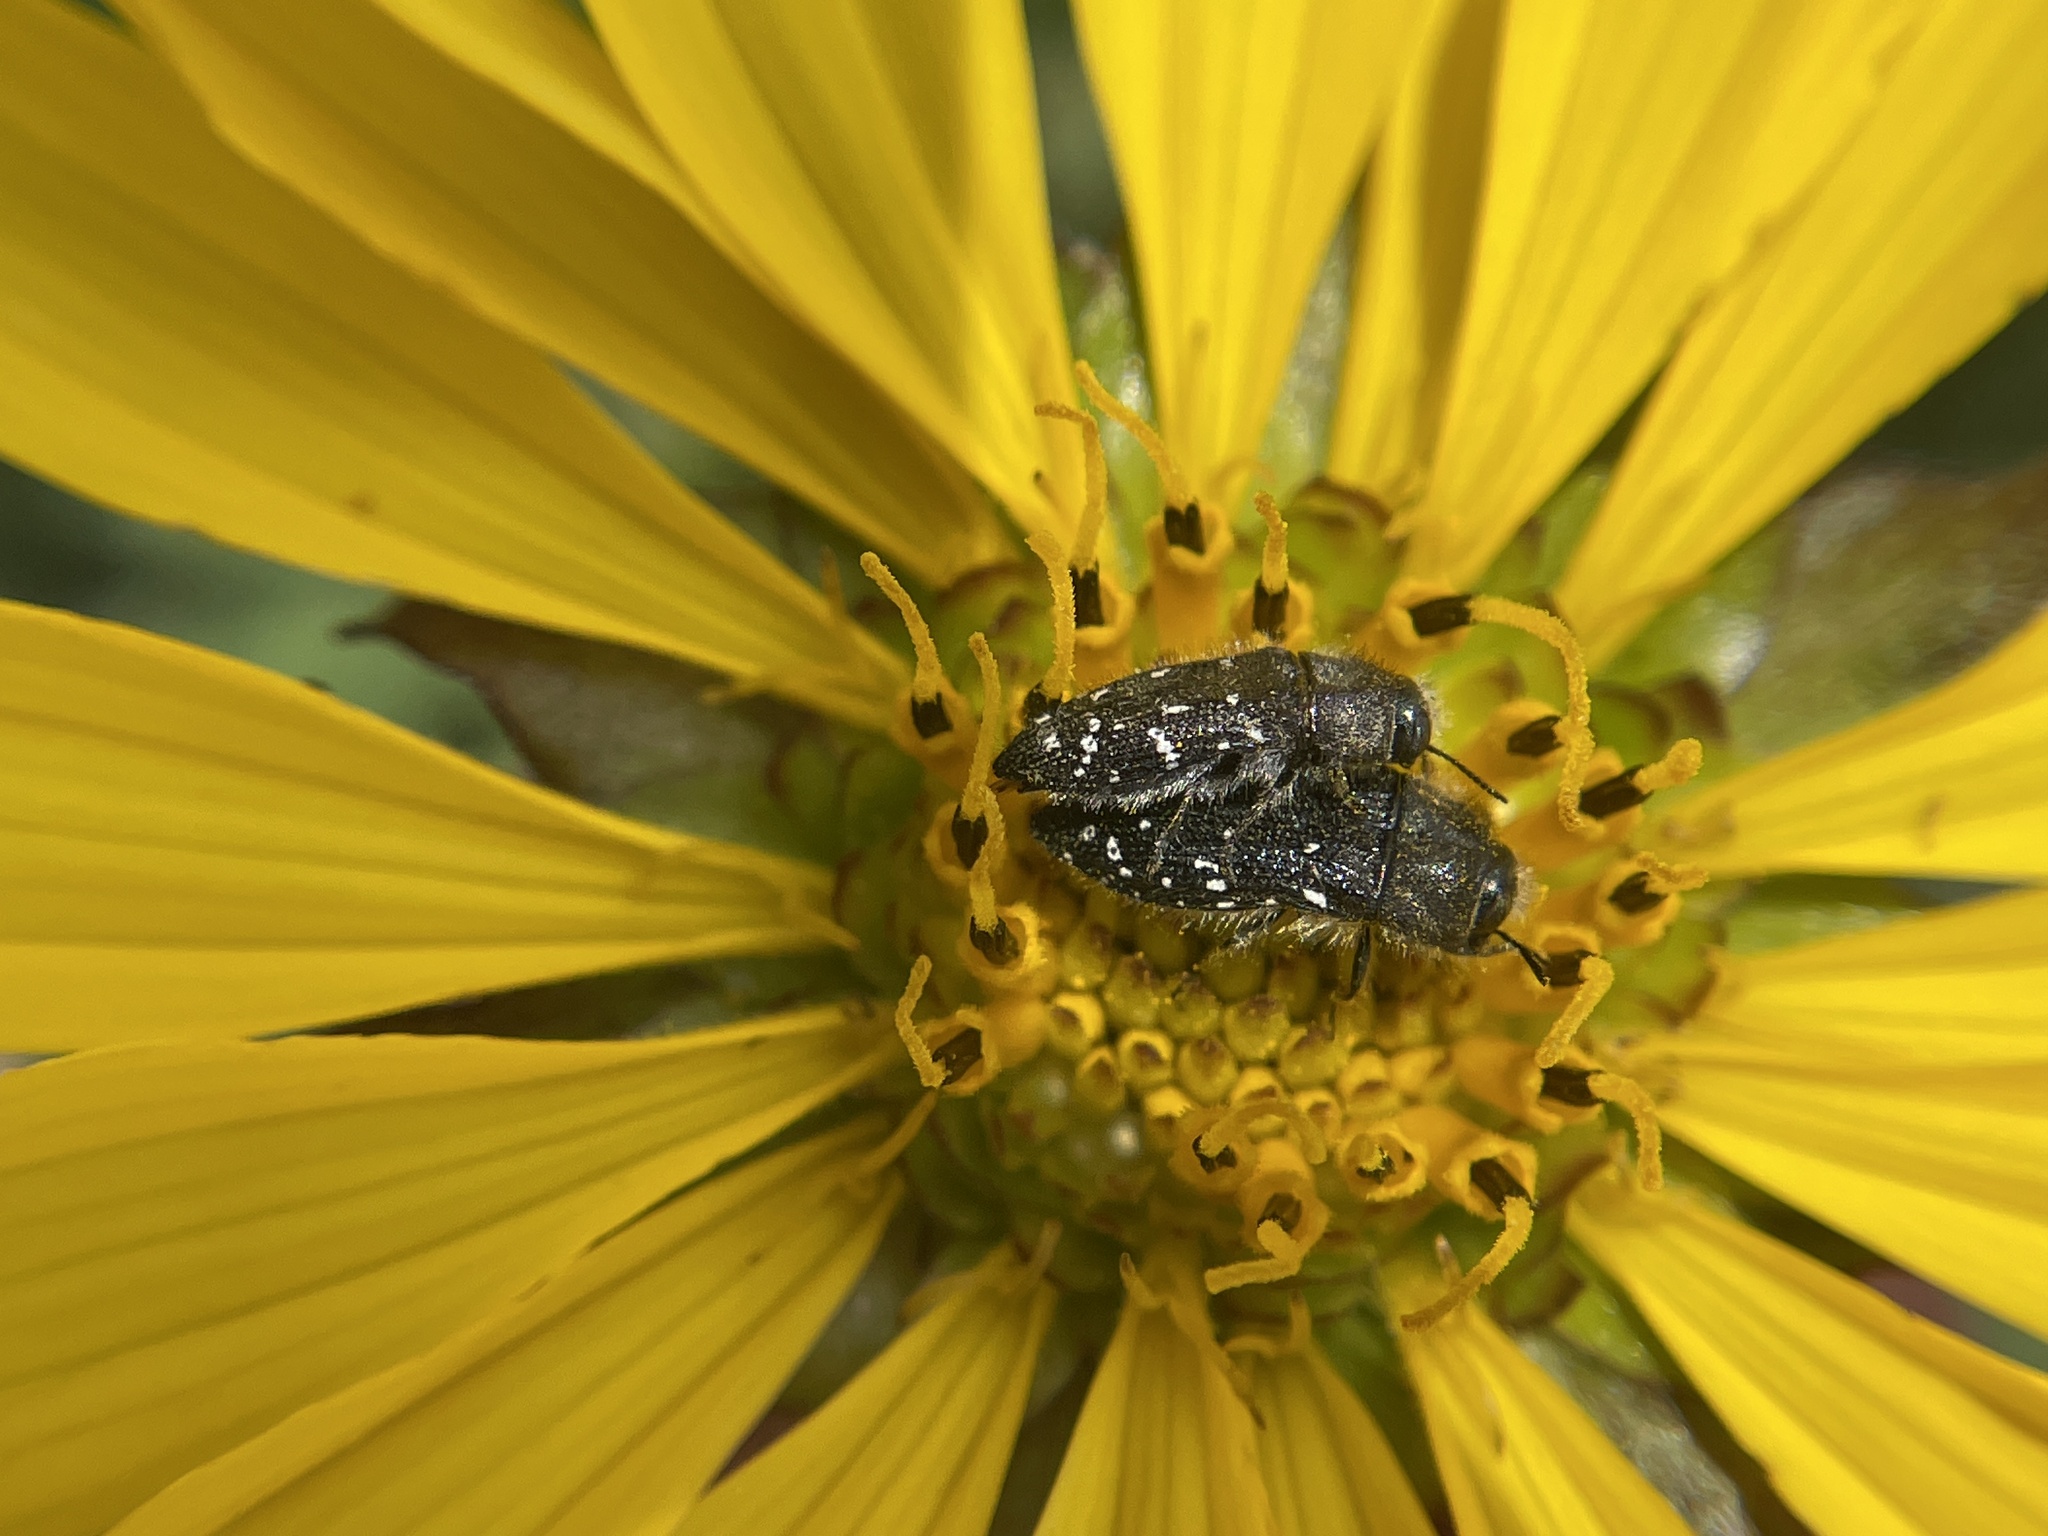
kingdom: Animalia
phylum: Arthropoda
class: Insecta
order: Coleoptera
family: Buprestidae
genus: Acmaeodera
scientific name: Acmaeodera ornatoides
